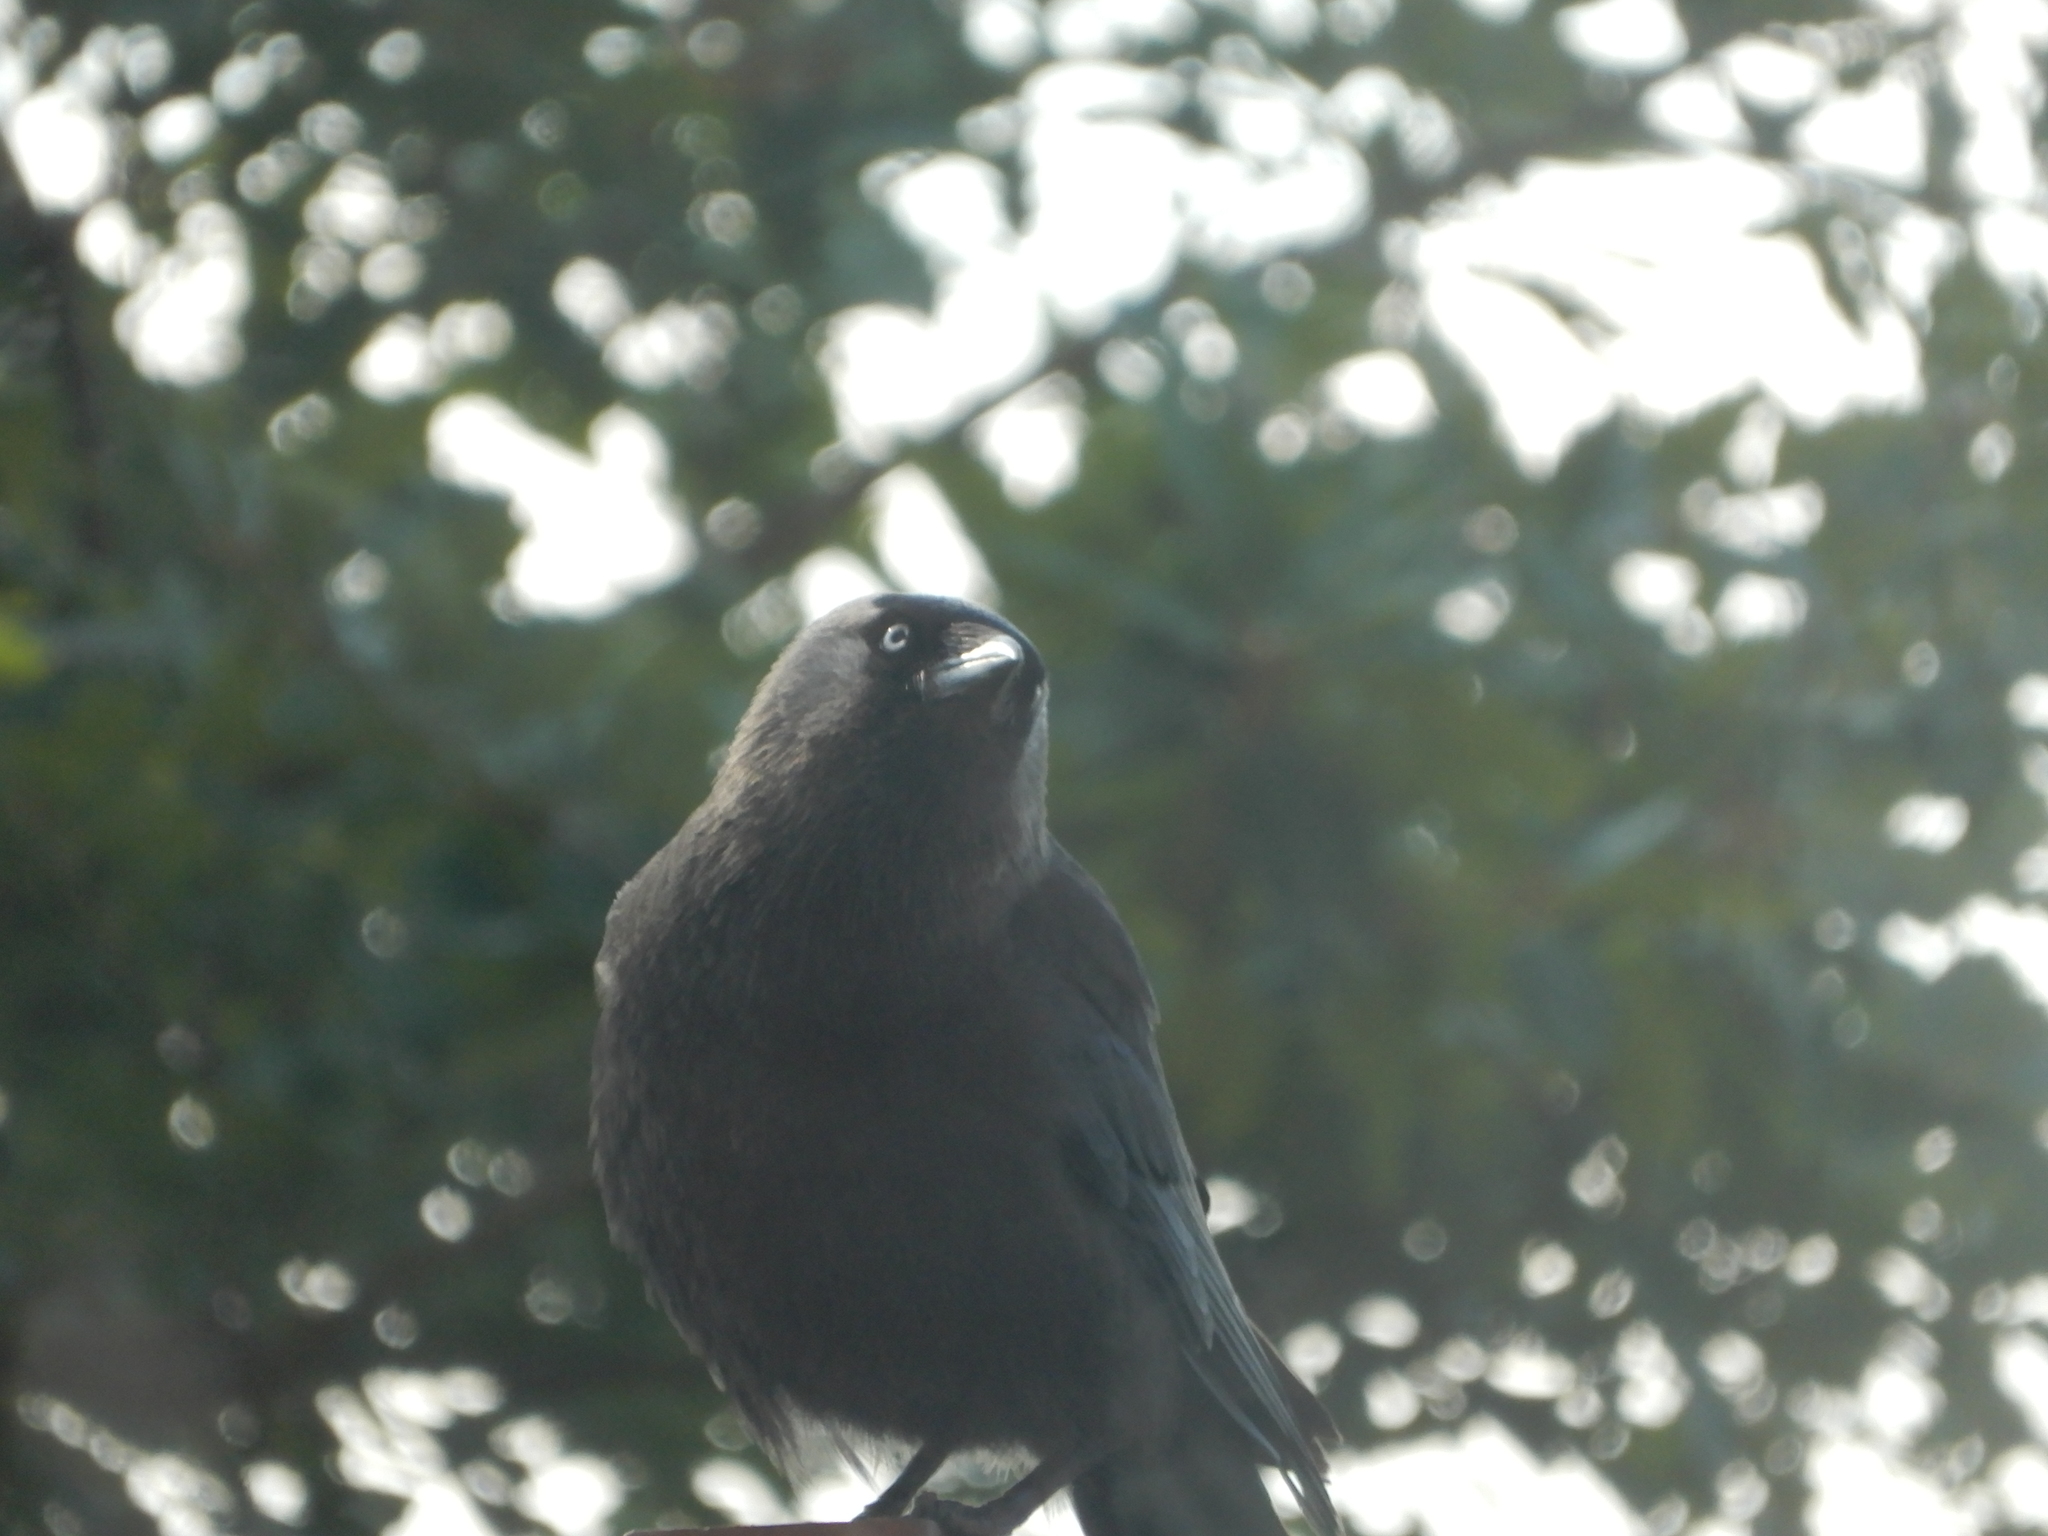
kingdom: Animalia
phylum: Chordata
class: Aves
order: Passeriformes
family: Corvidae
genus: Coloeus
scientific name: Coloeus monedula
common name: Western jackdaw
